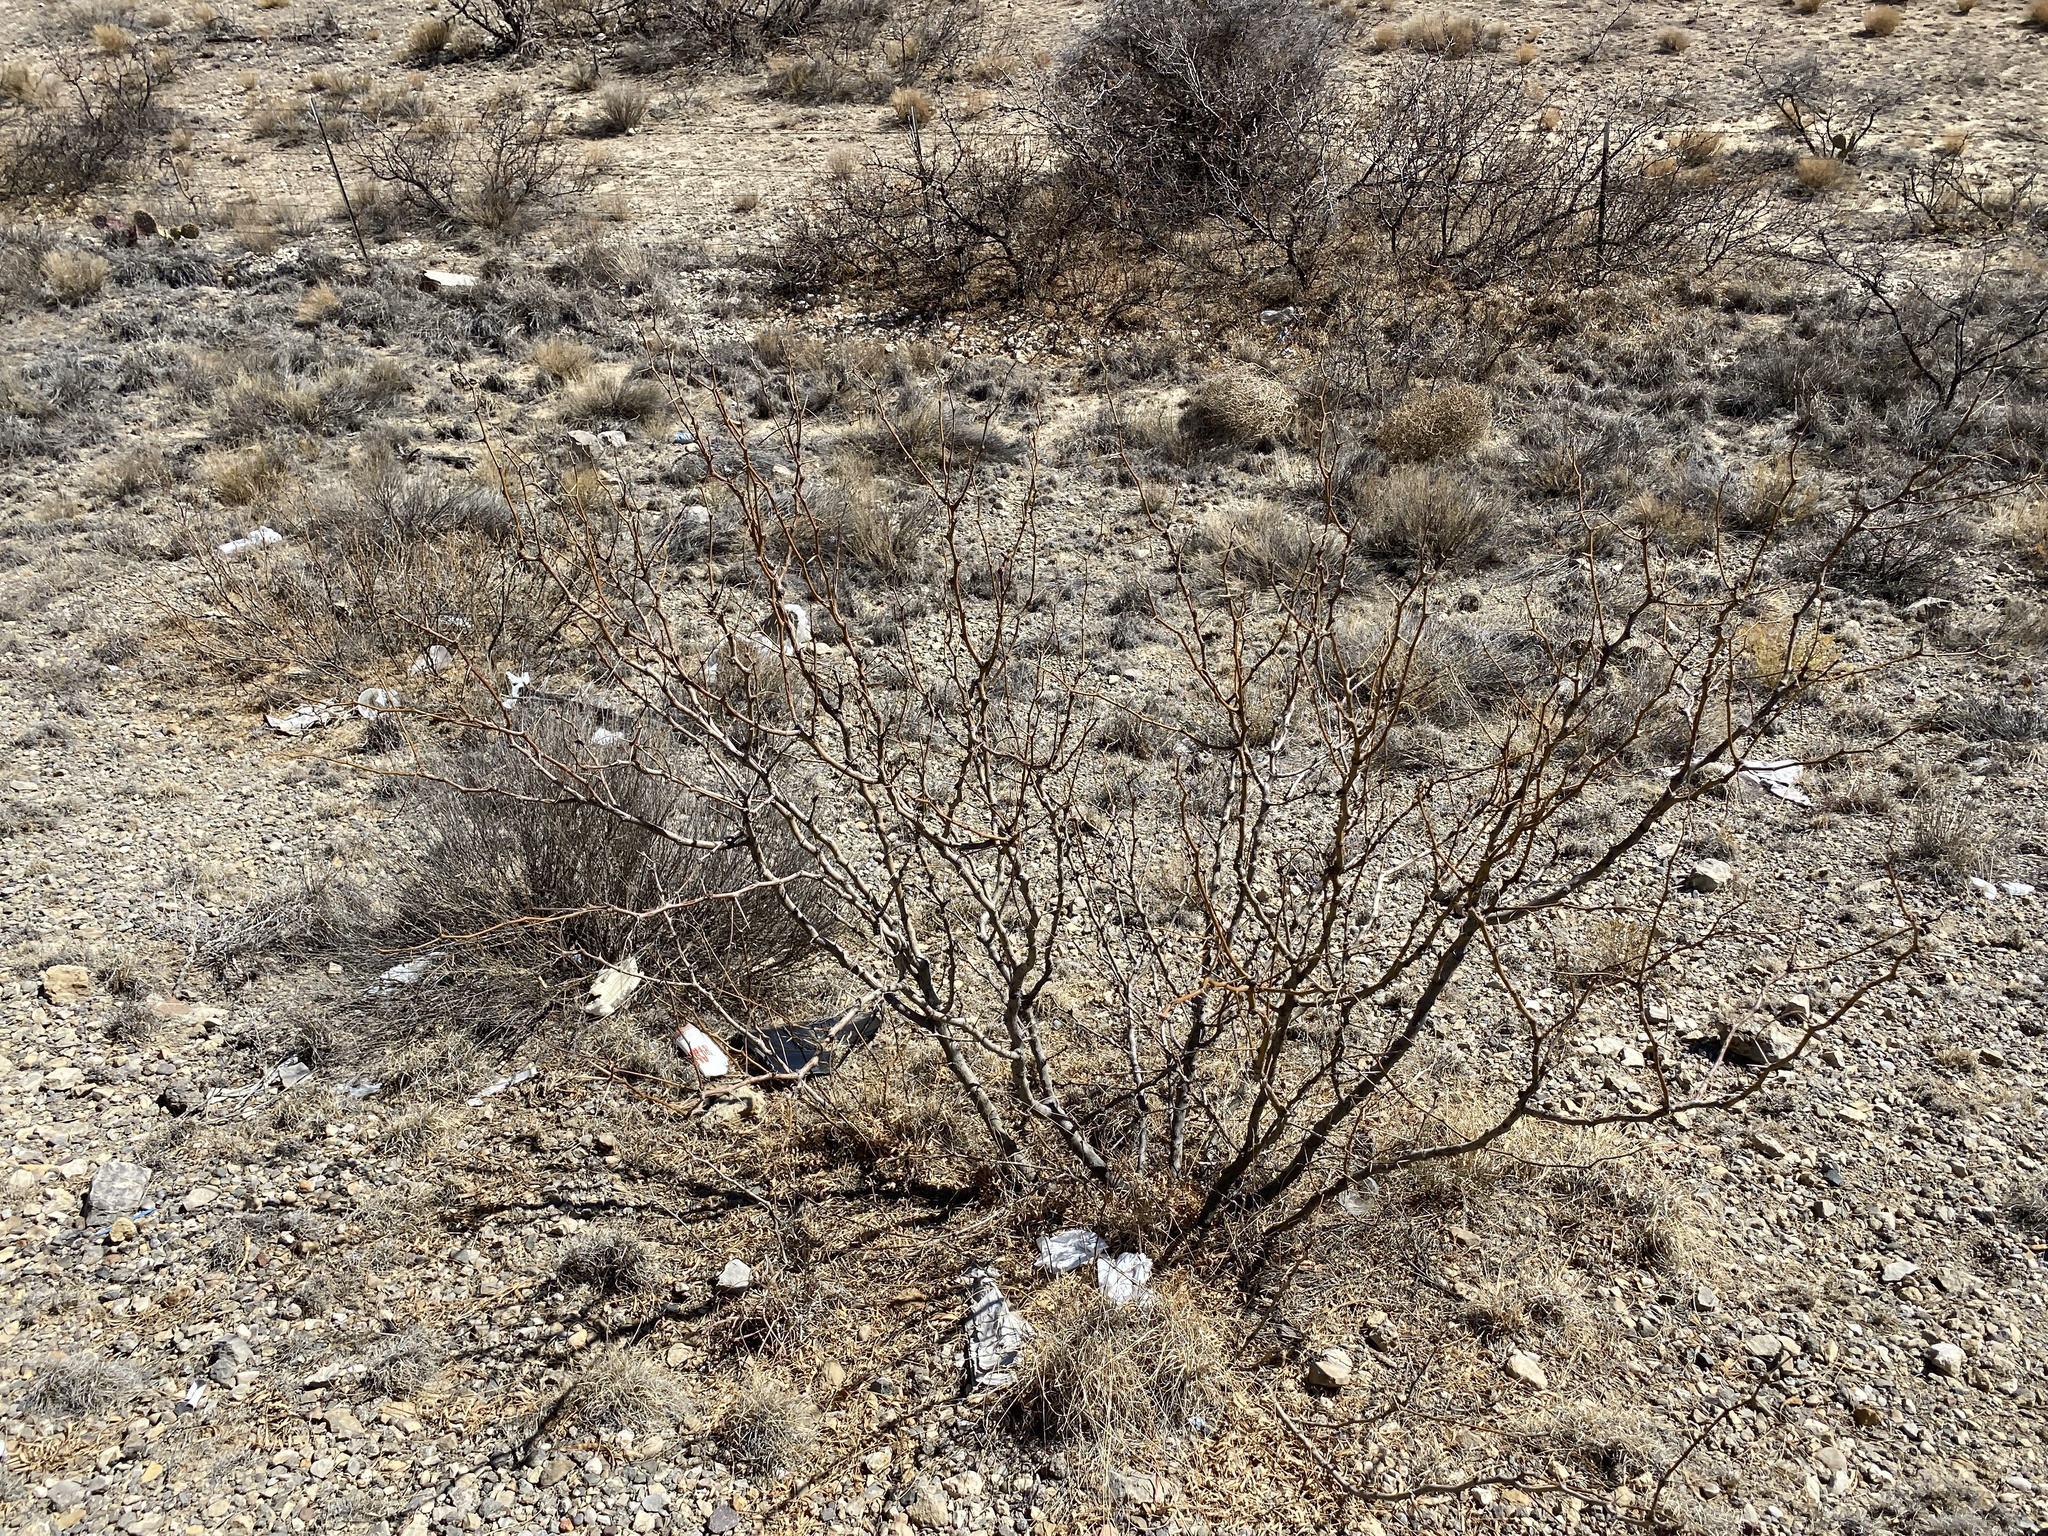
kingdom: Plantae
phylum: Tracheophyta
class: Magnoliopsida
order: Fabales
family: Fabaceae
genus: Prosopis
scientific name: Prosopis glandulosa
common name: Honey mesquite
